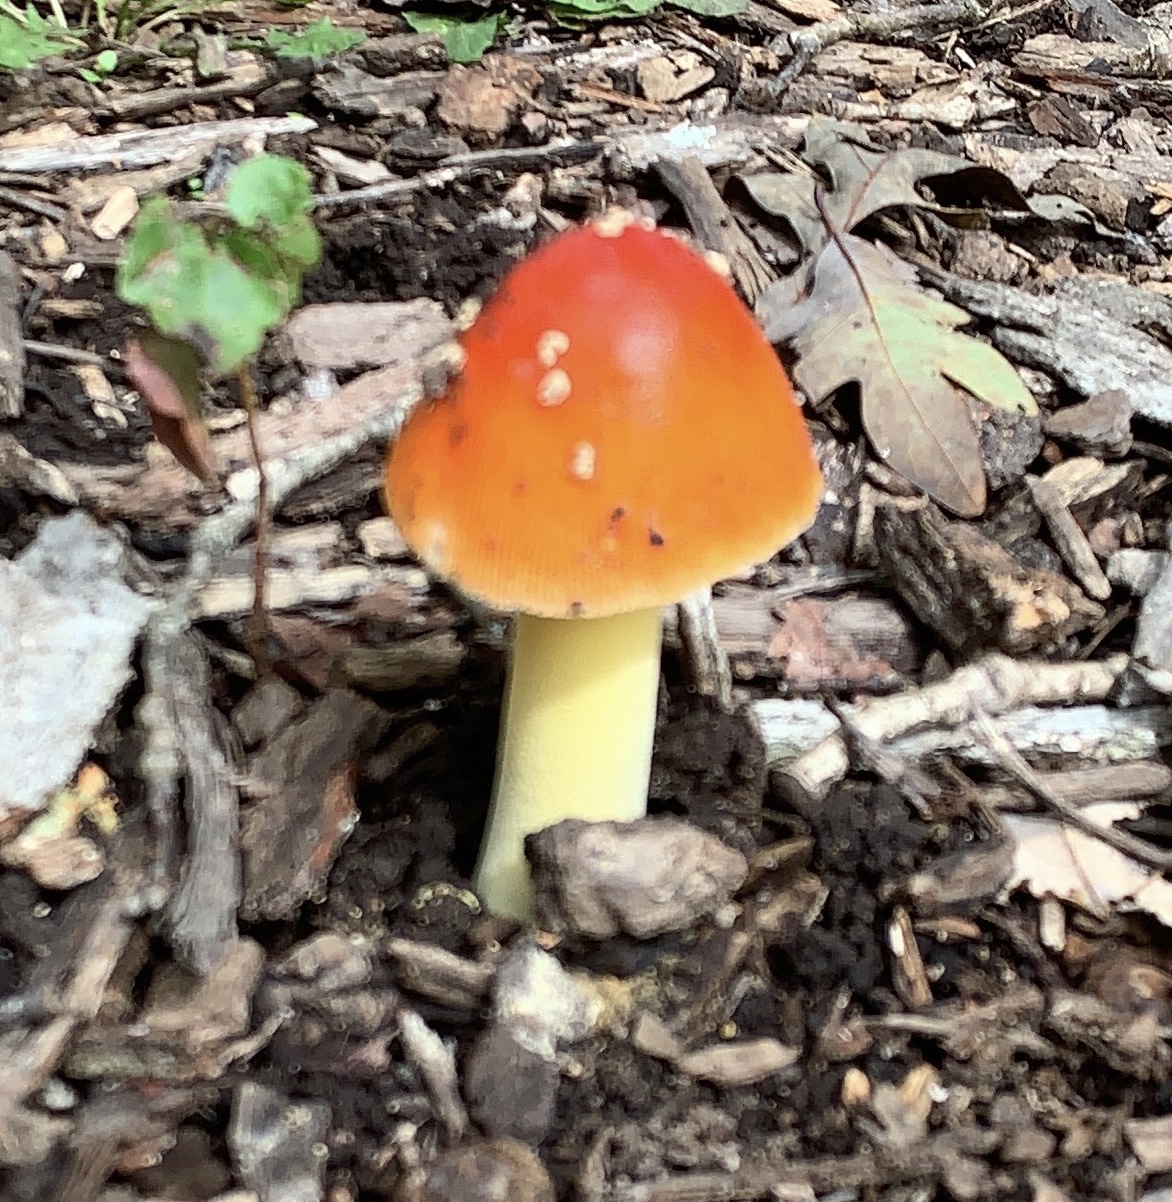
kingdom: Fungi
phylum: Basidiomycota
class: Agaricomycetes
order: Agaricales
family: Amanitaceae
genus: Amanita
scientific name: Amanita parcivolvata
